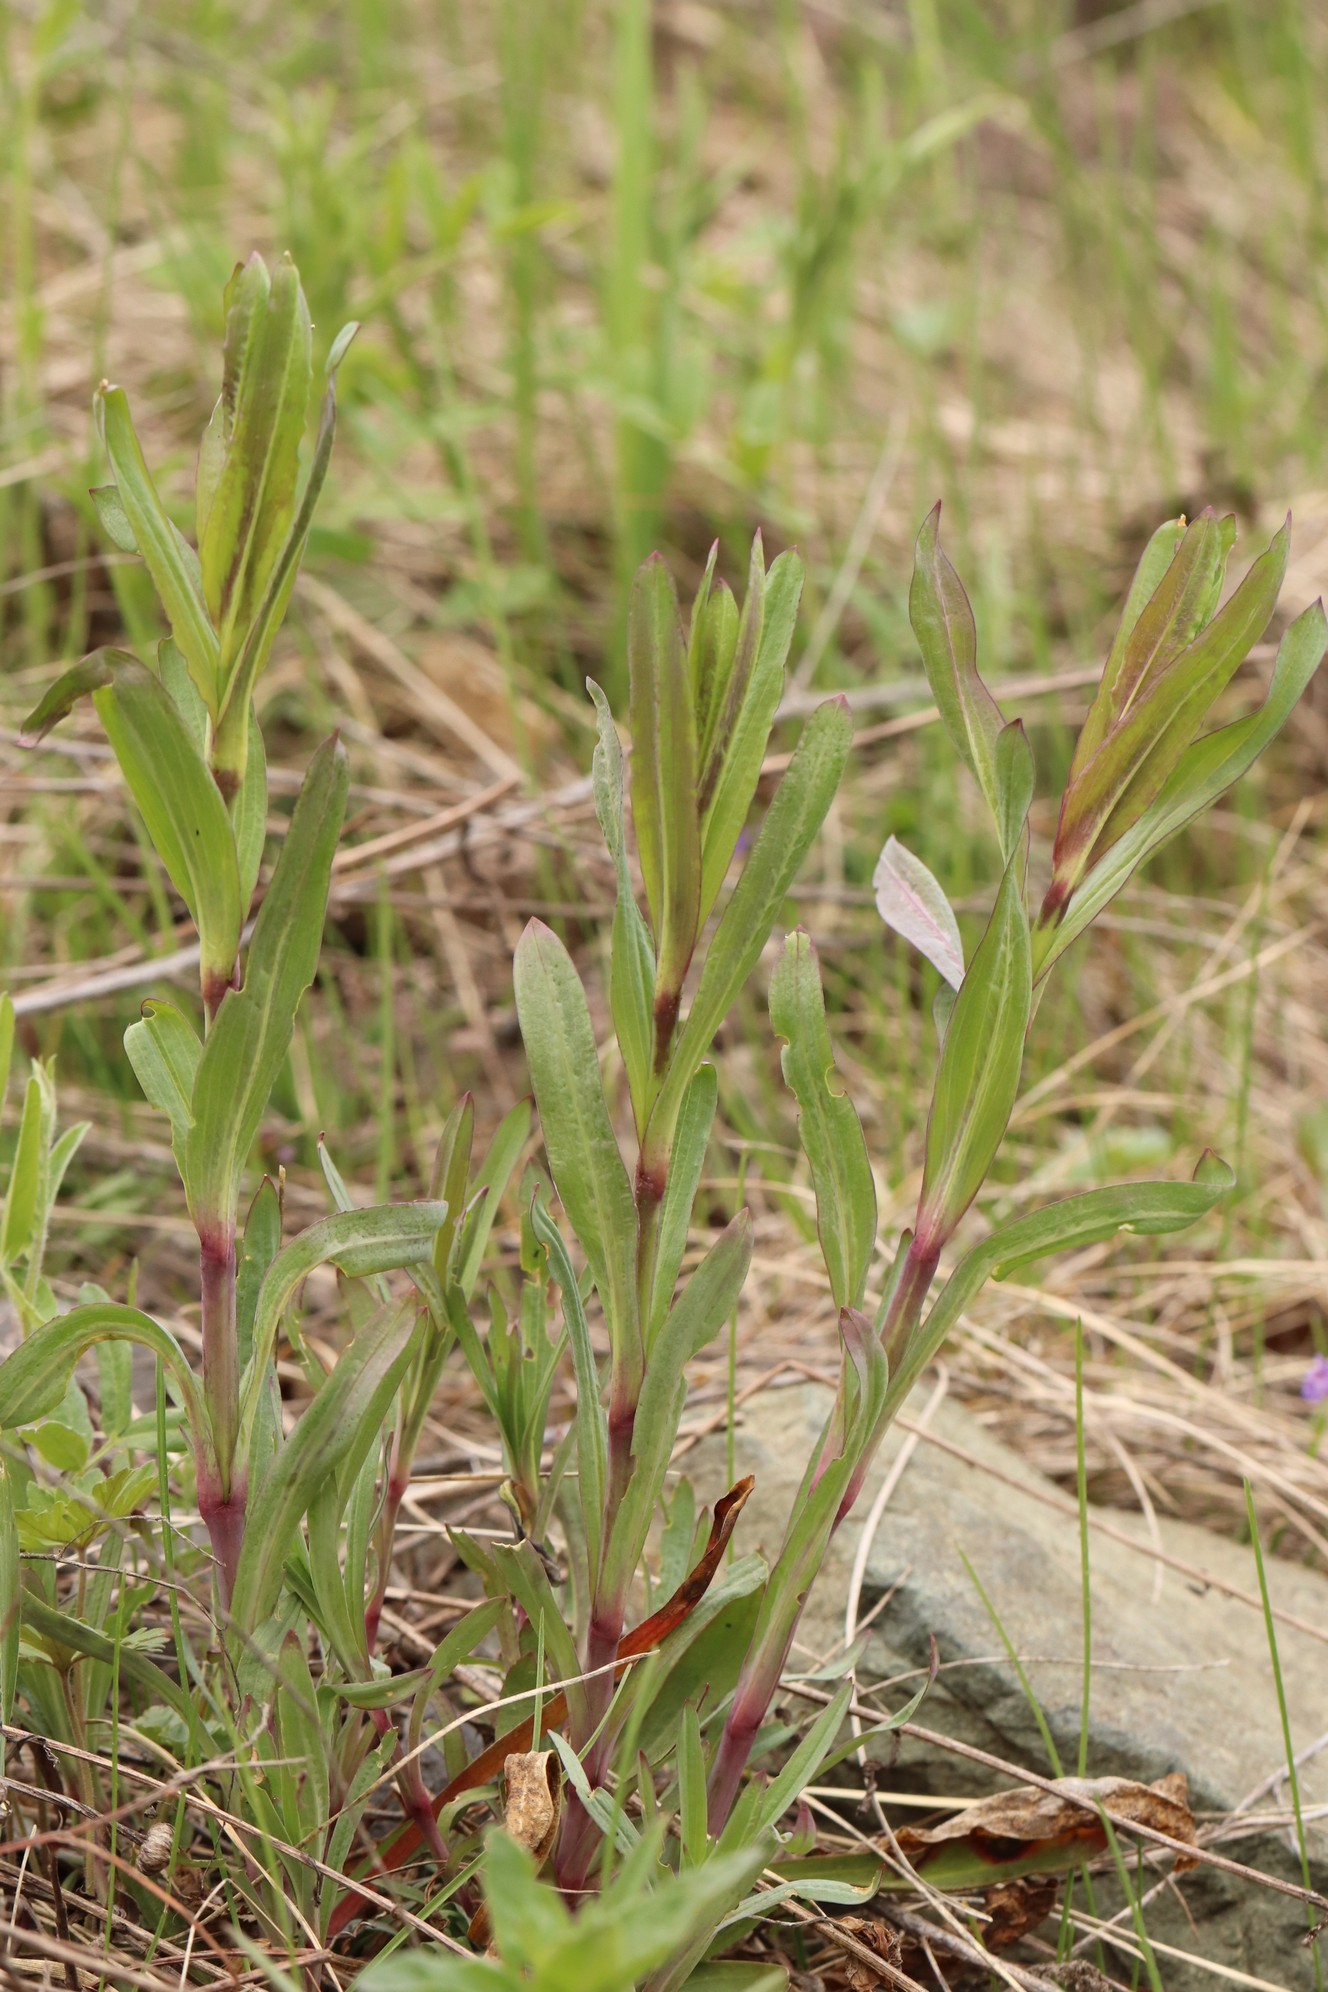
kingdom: Plantae
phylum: Tracheophyta
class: Magnoliopsida
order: Caryophyllales
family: Caryophyllaceae
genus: Gypsophila
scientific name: Gypsophila altissima
